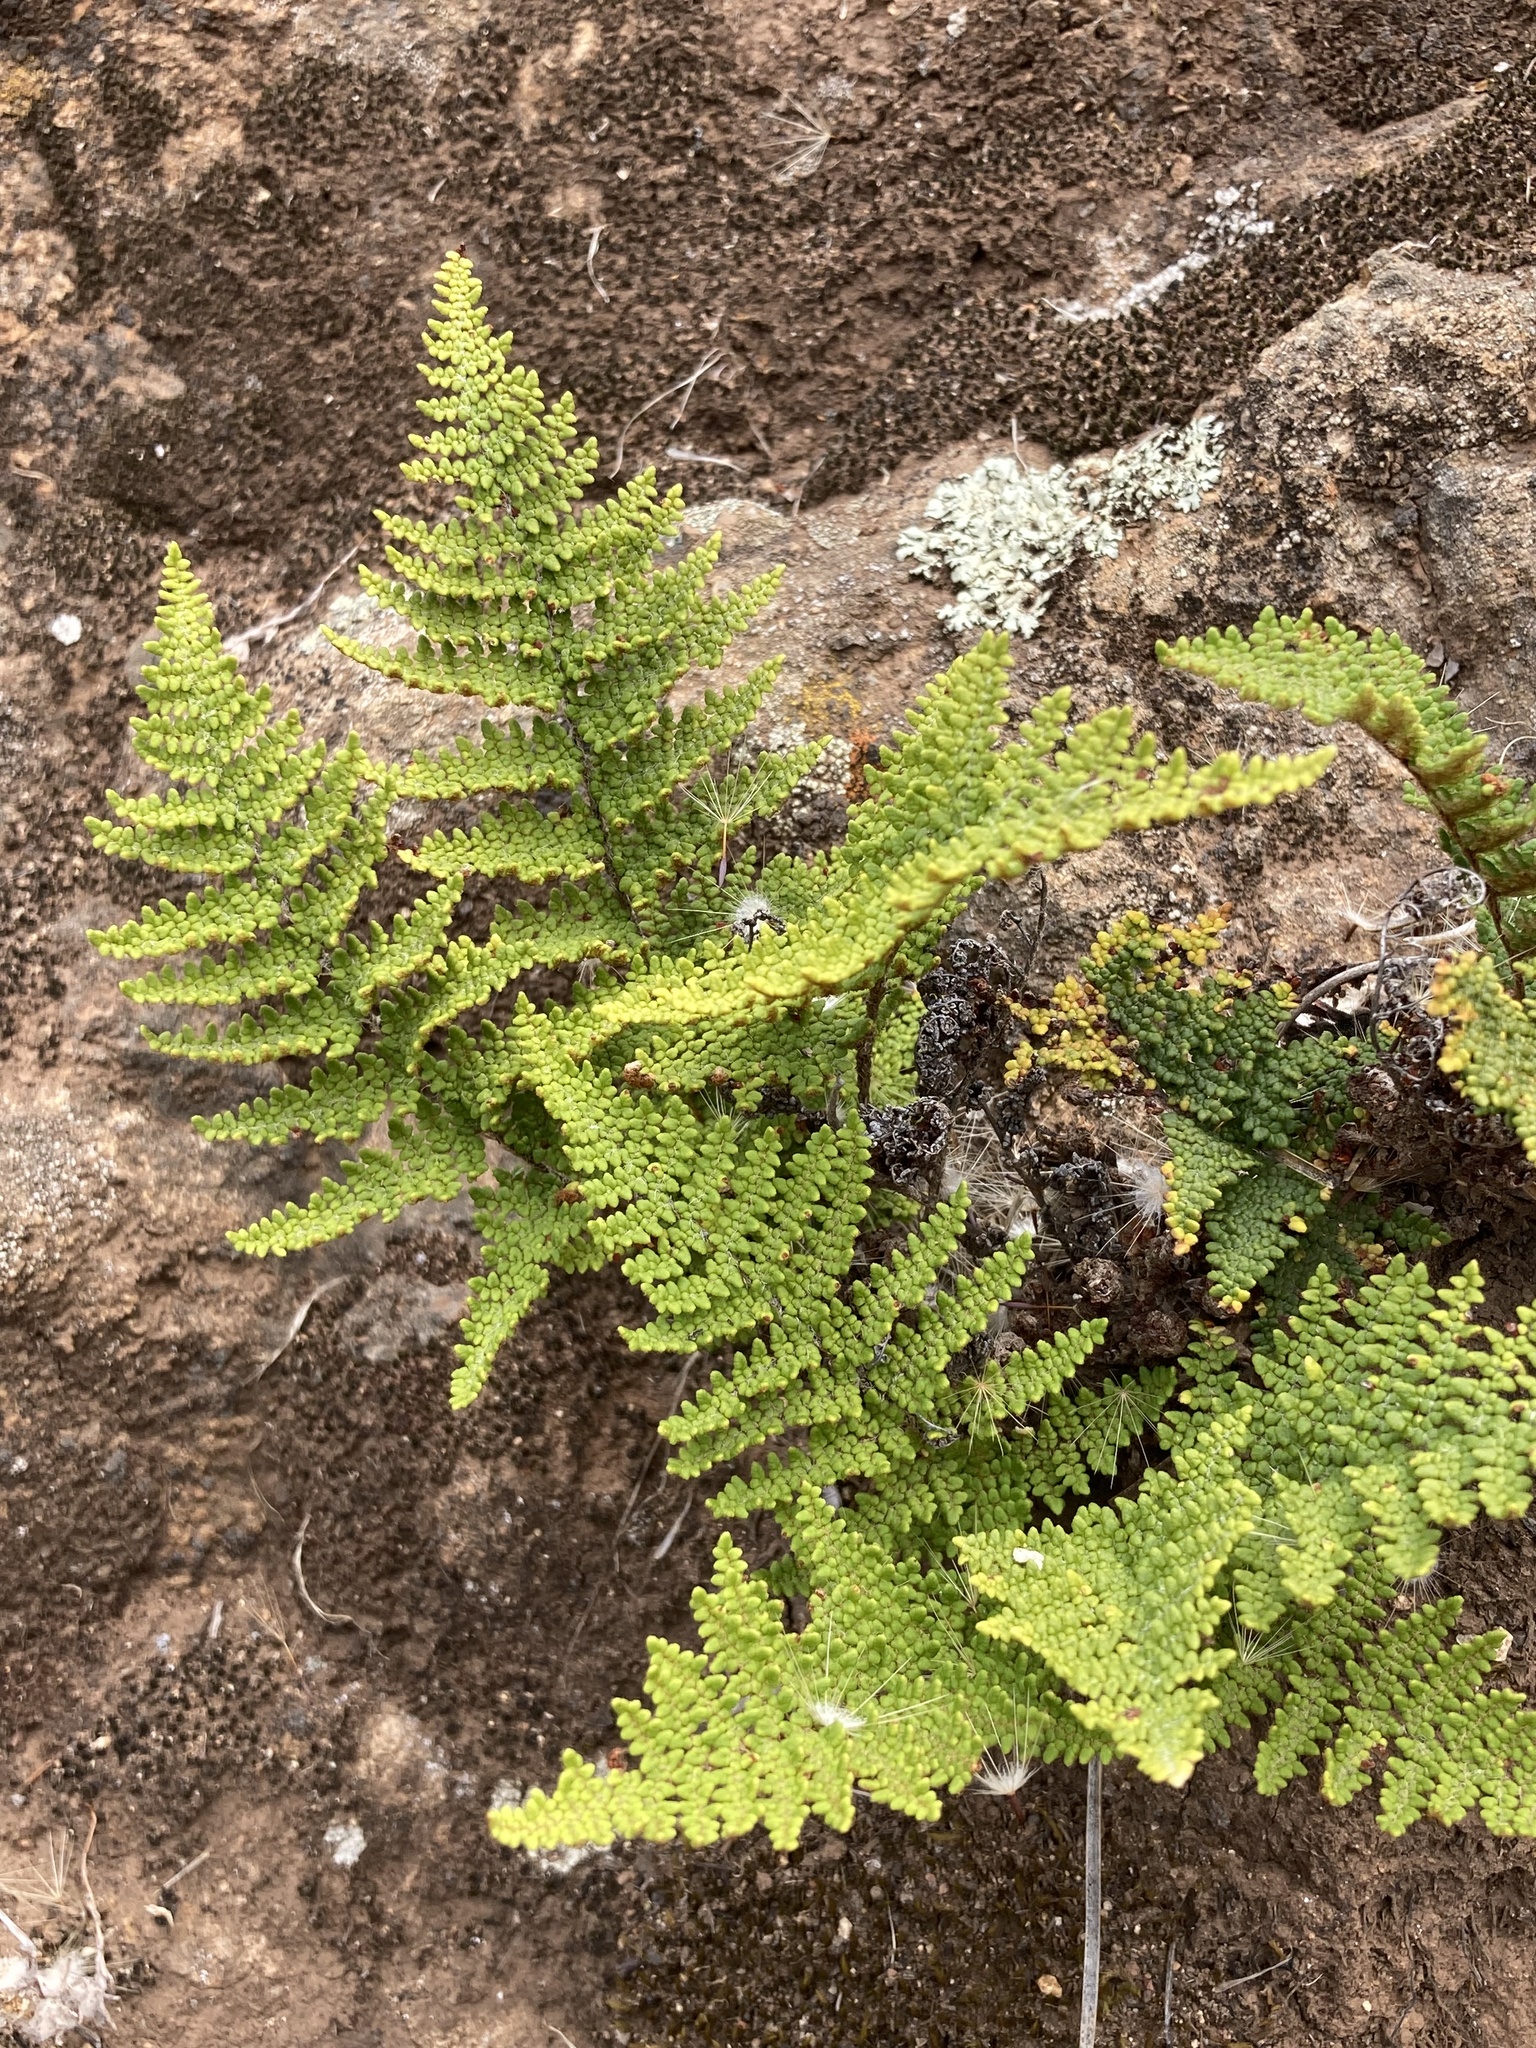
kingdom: Plantae
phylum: Tracheophyta
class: Polypodiopsida
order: Polypodiales
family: Pteridaceae
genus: Myriopteris
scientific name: Myriopteris clevelandii
